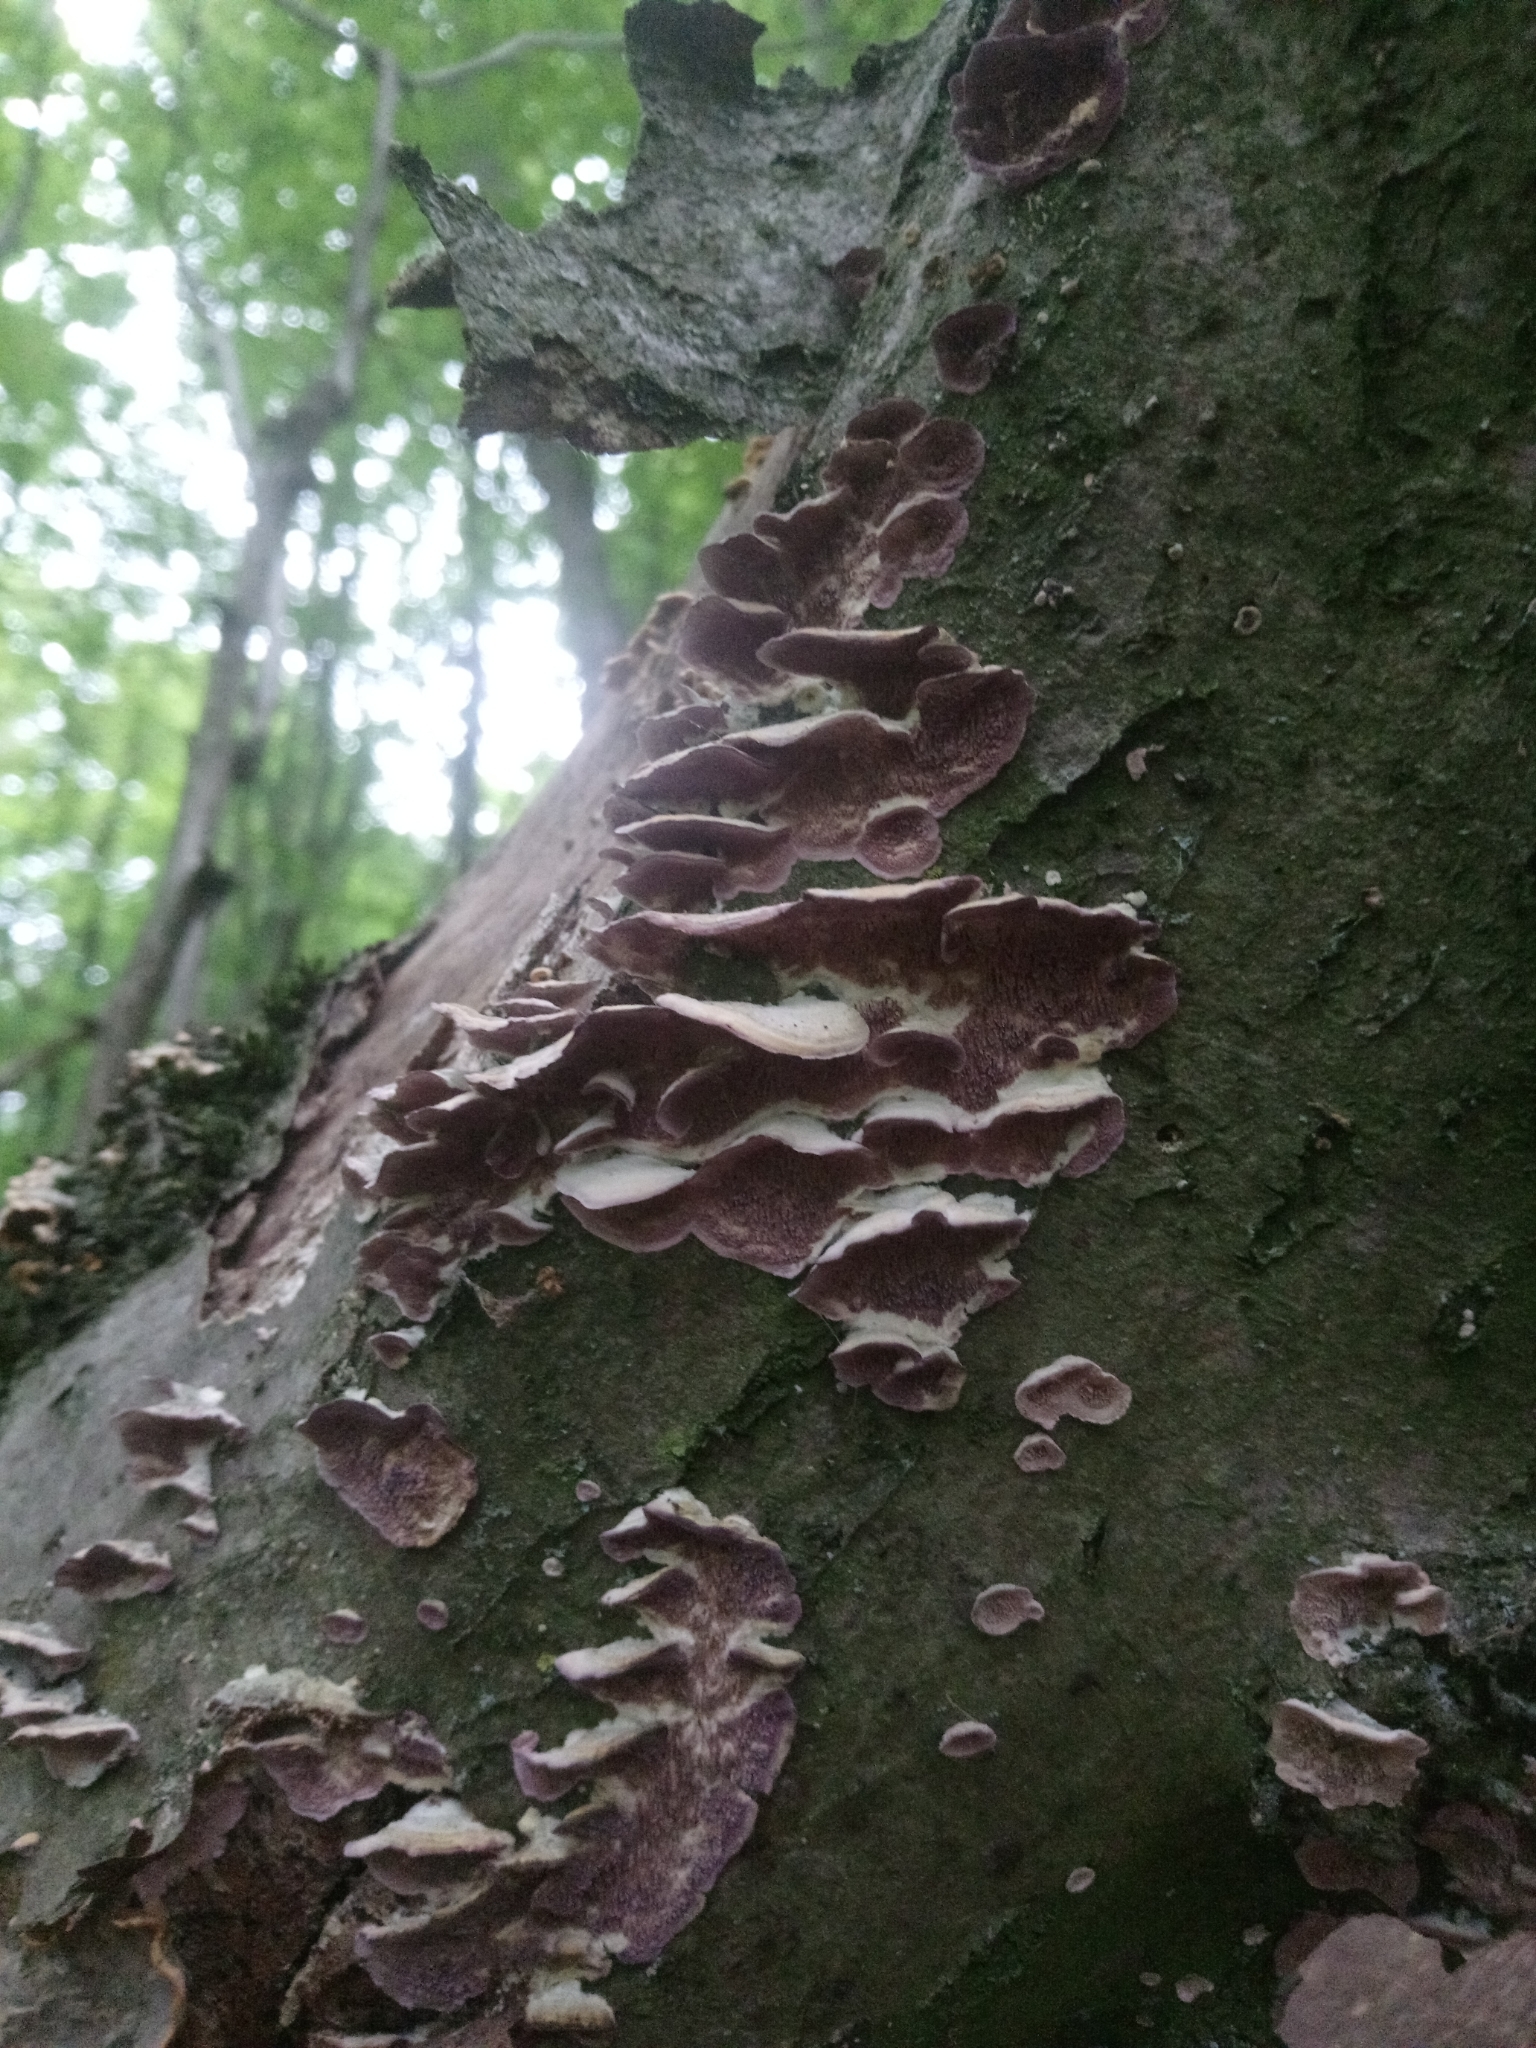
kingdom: Fungi
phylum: Basidiomycota
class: Agaricomycetes
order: Hymenochaetales
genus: Trichaptum
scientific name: Trichaptum biforme
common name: Violet-toothed polypore
